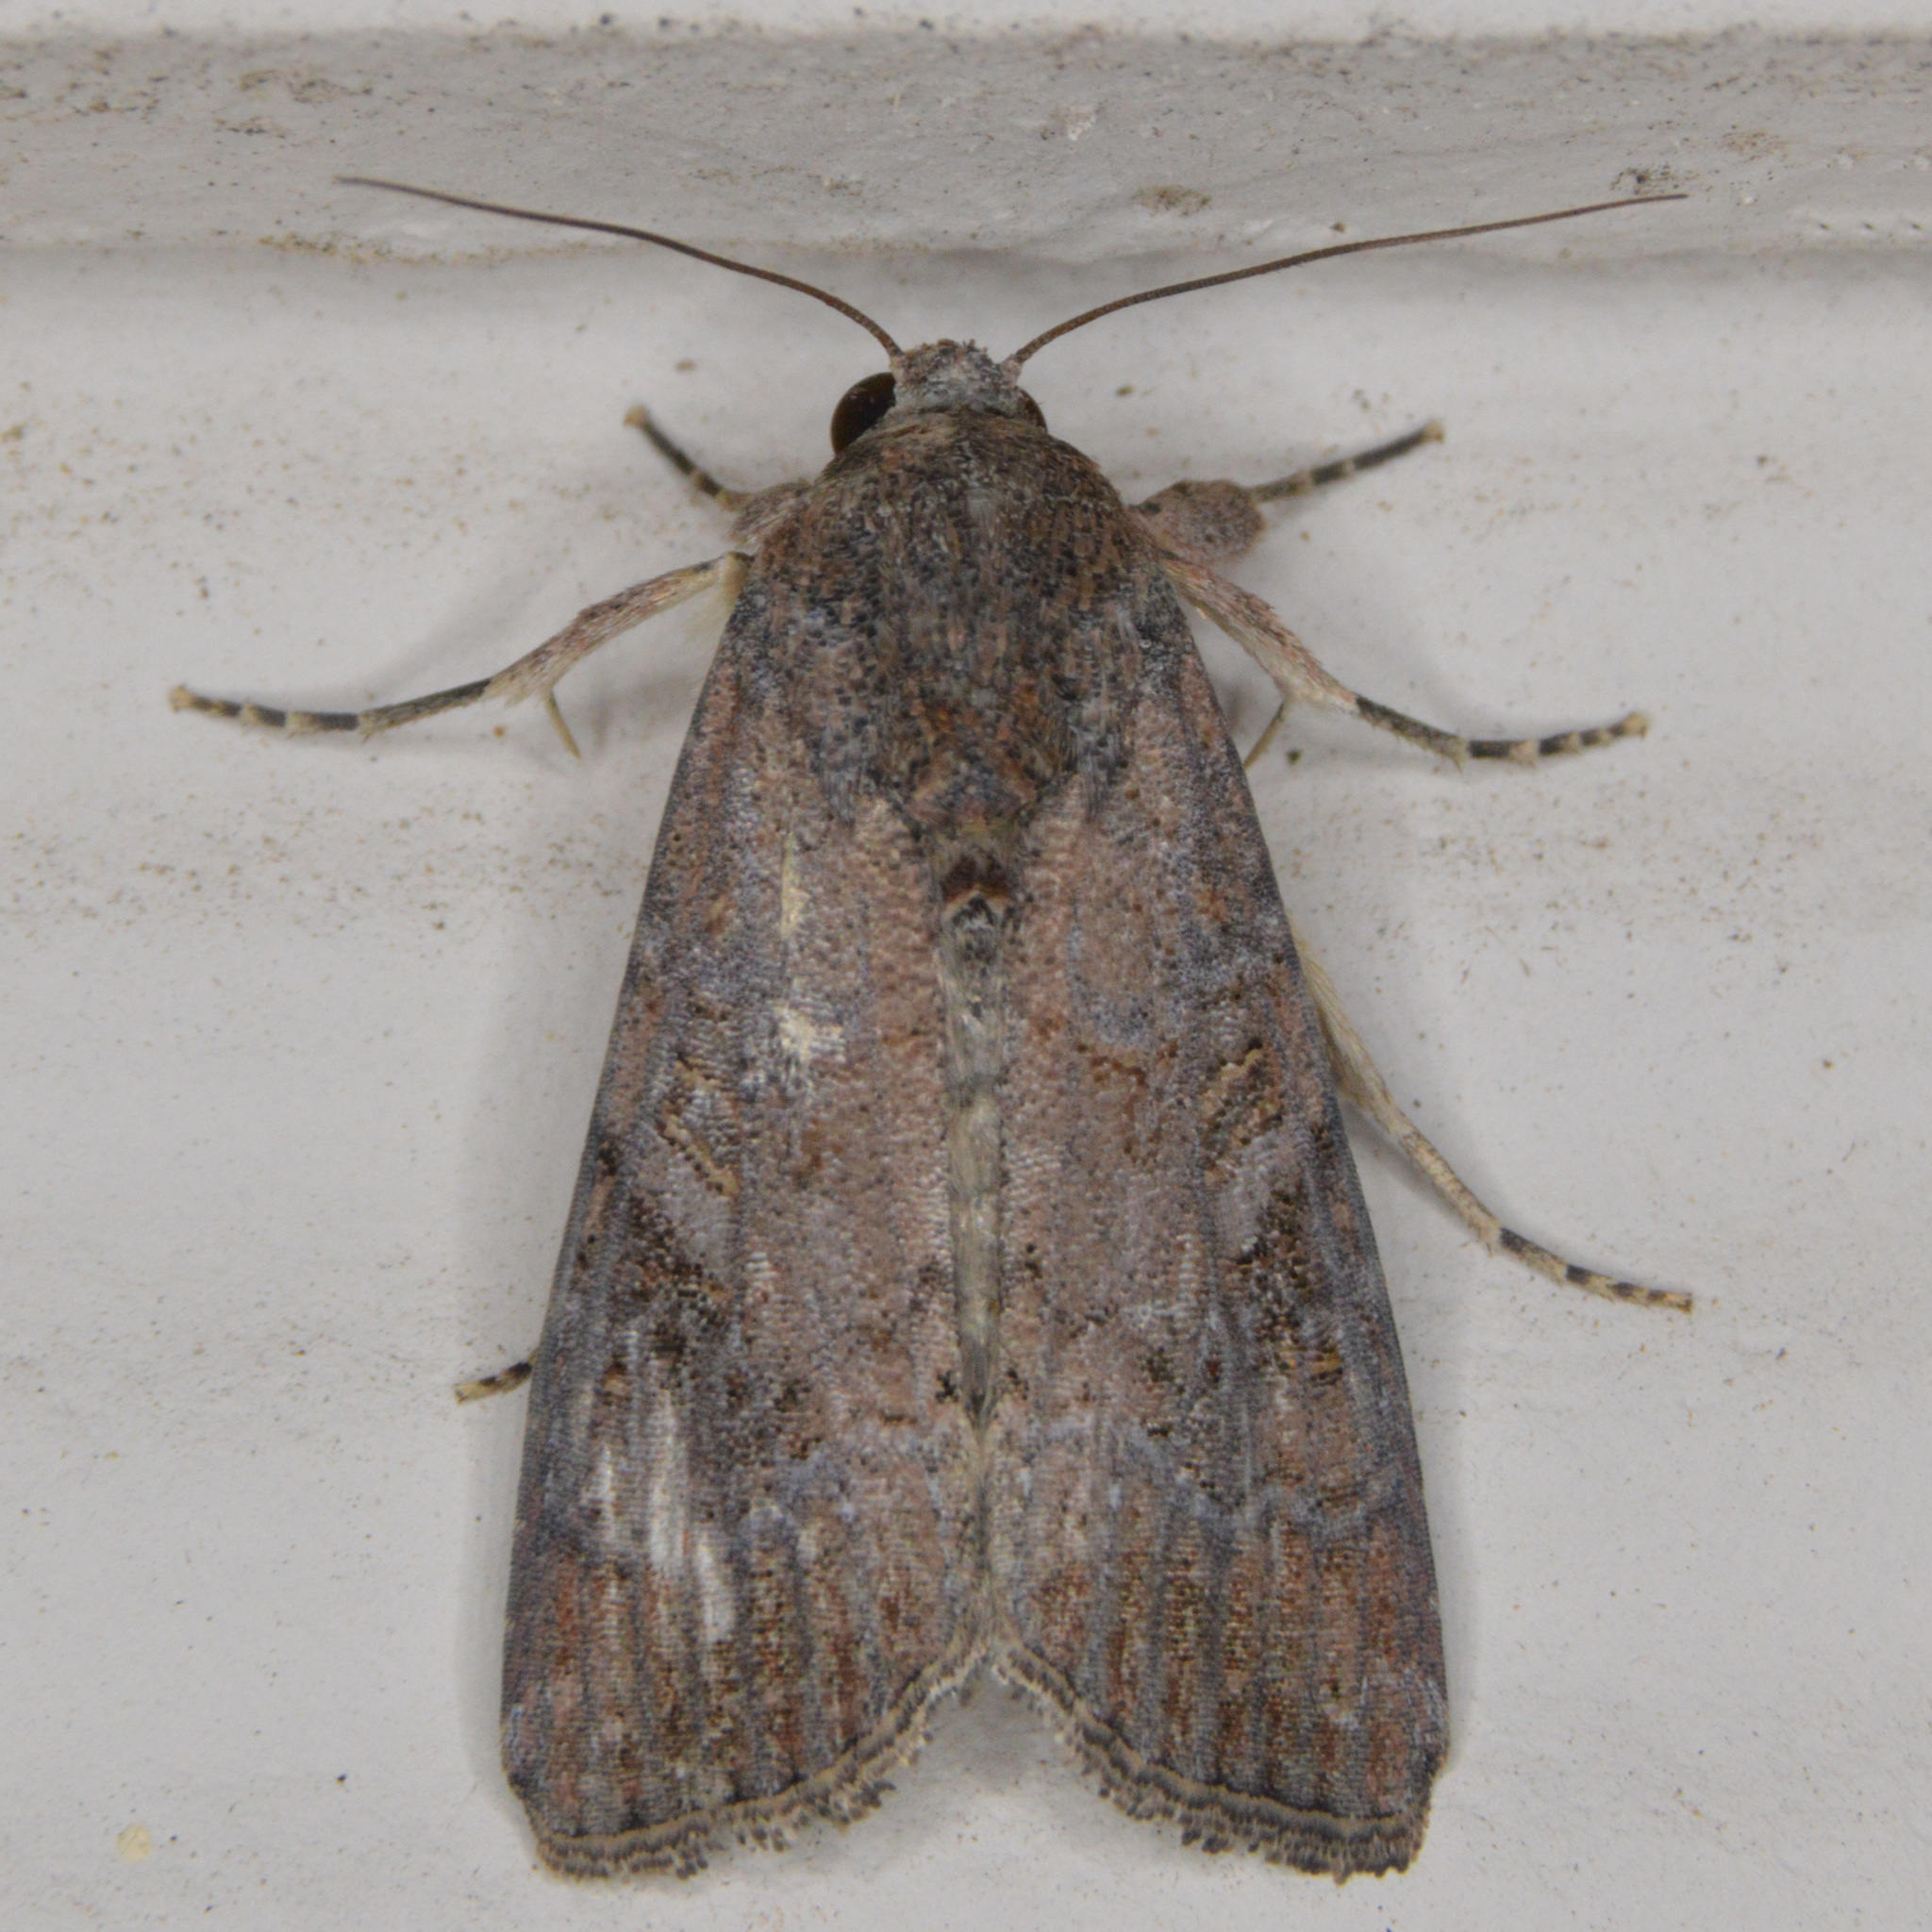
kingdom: Animalia
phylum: Arthropoda
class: Insecta
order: Lepidoptera
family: Noctuidae
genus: Spodoptera
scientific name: Spodoptera frugiperda
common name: Fall armyworm
